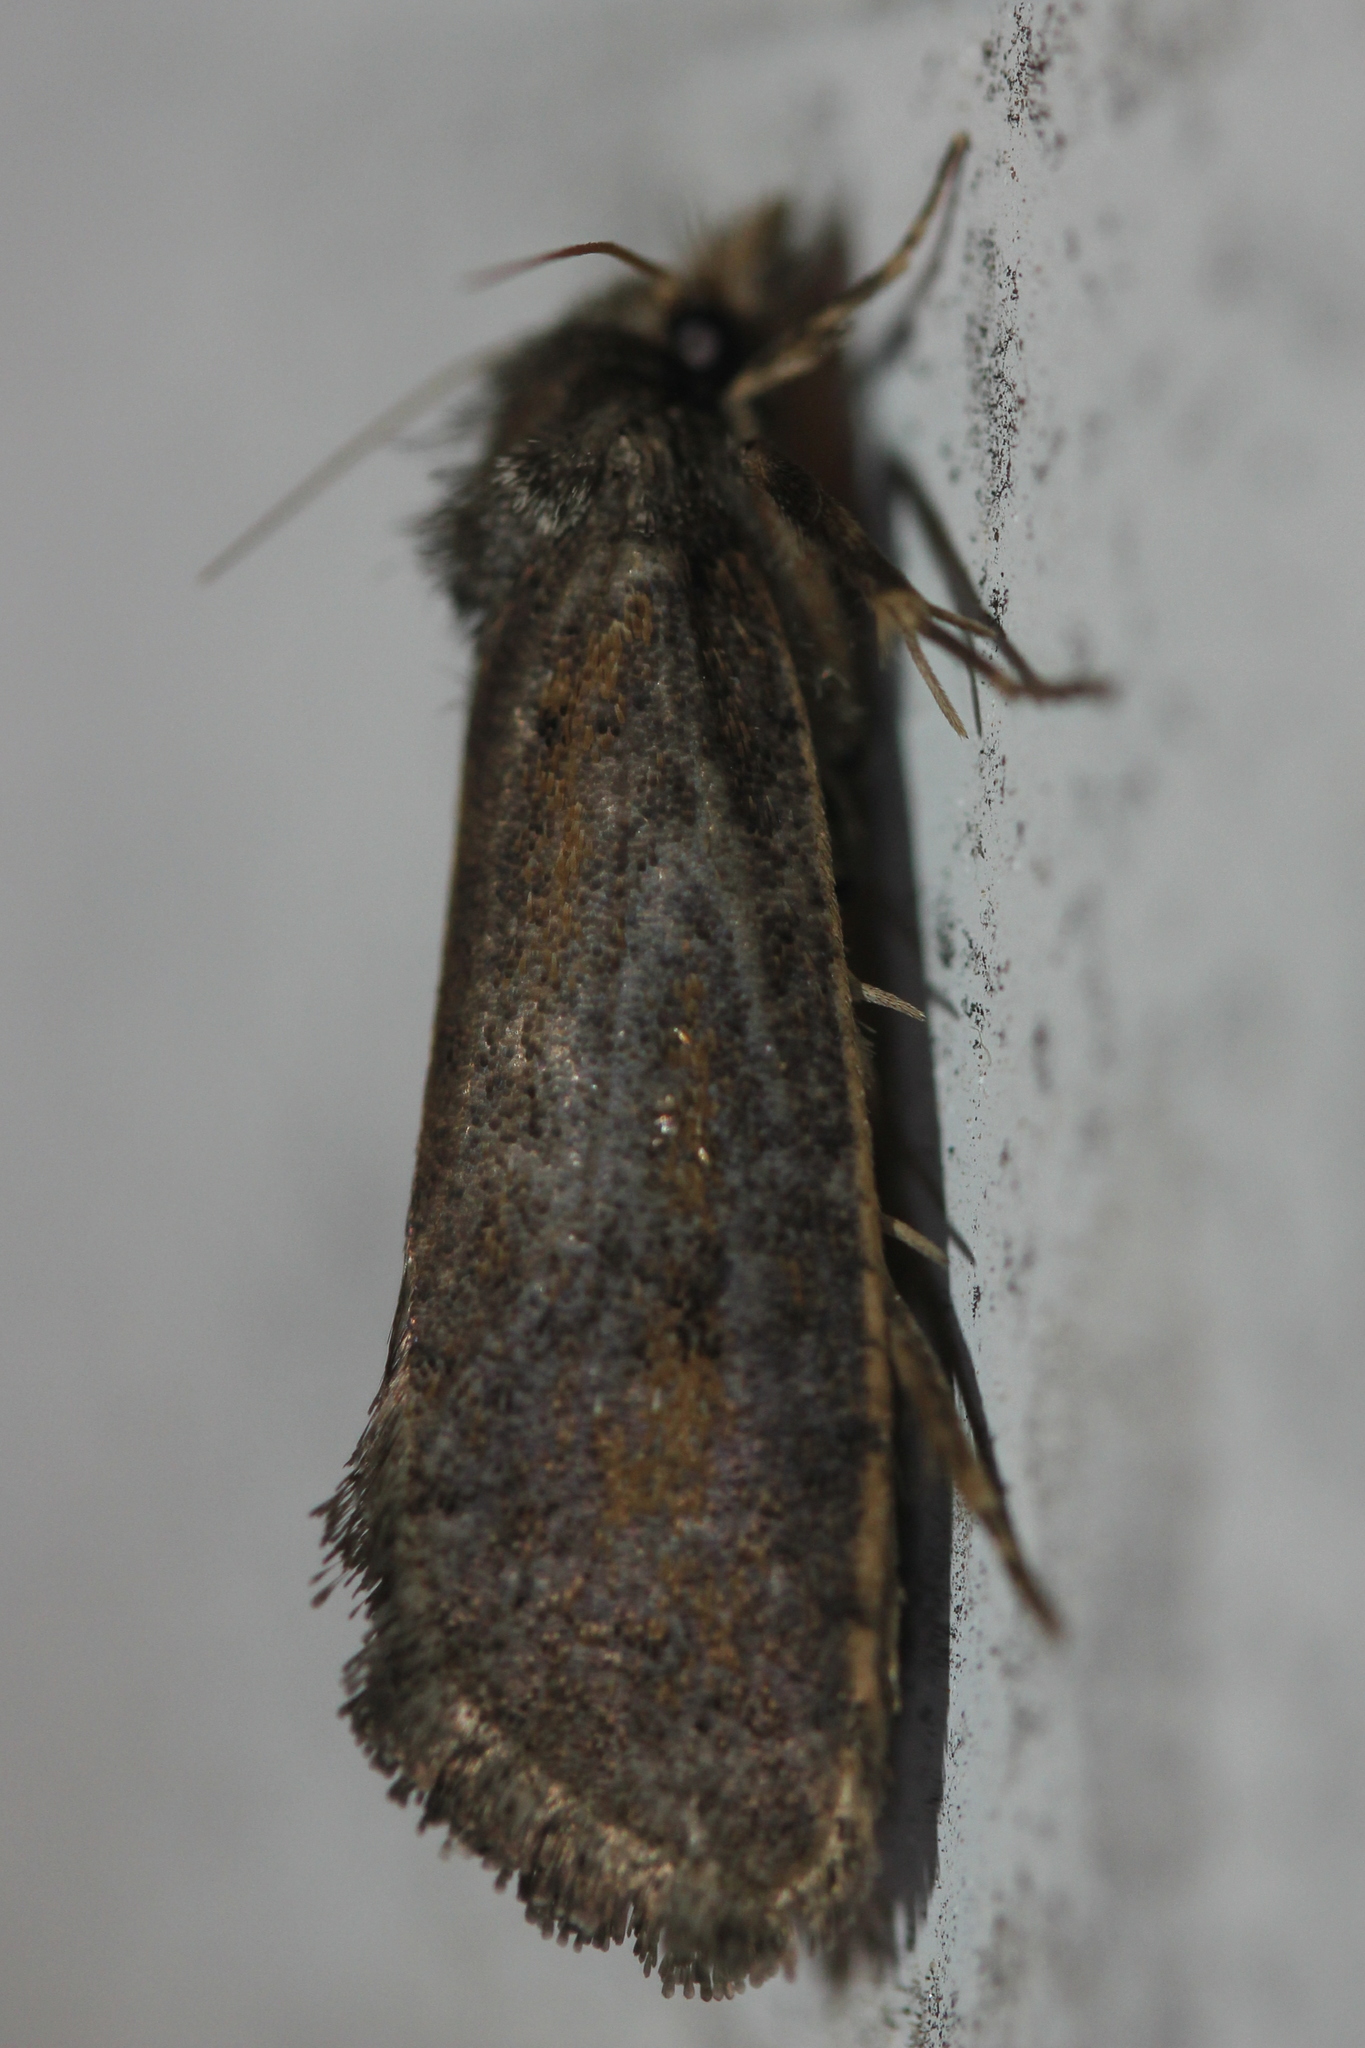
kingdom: Animalia
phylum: Arthropoda
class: Insecta
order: Lepidoptera
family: Tineidae
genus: Acrolophus
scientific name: Acrolophus popeanella
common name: Clemens' grass tubeworm moth
